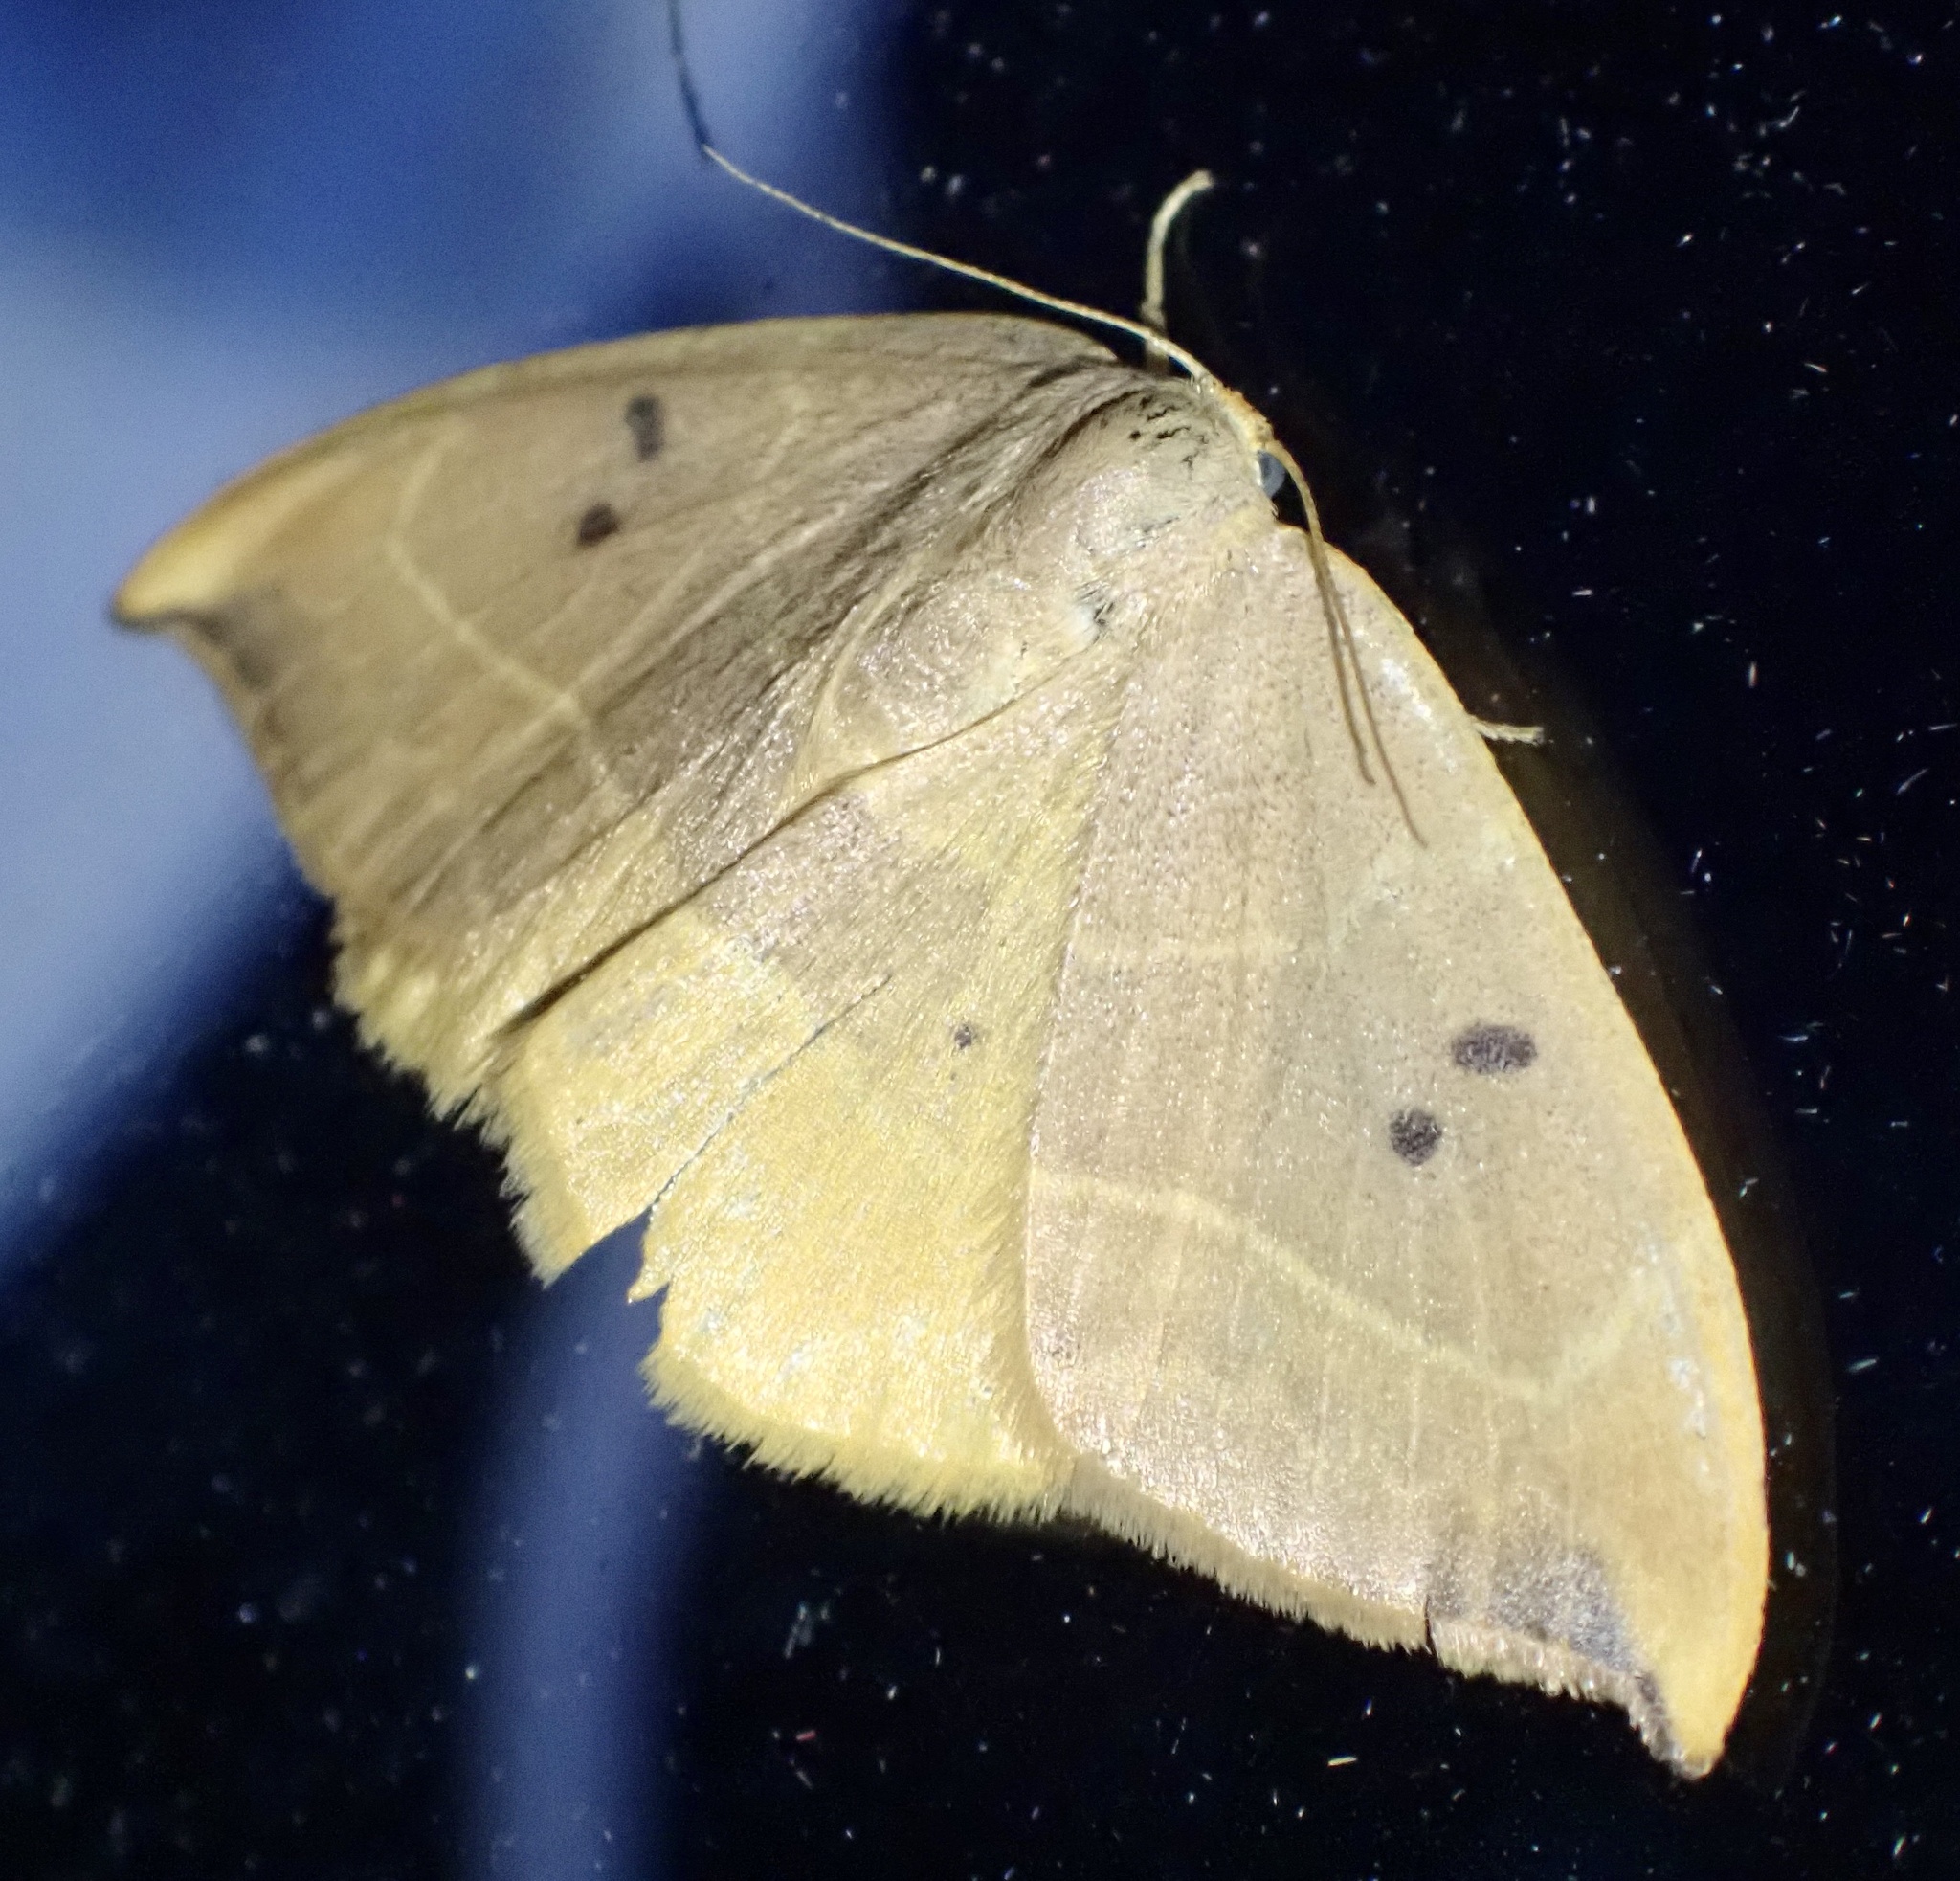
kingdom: Animalia
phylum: Arthropoda
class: Insecta
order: Lepidoptera
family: Drepanidae
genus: Watsonalla
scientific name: Watsonalla binaria
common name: Oak hook-tip
